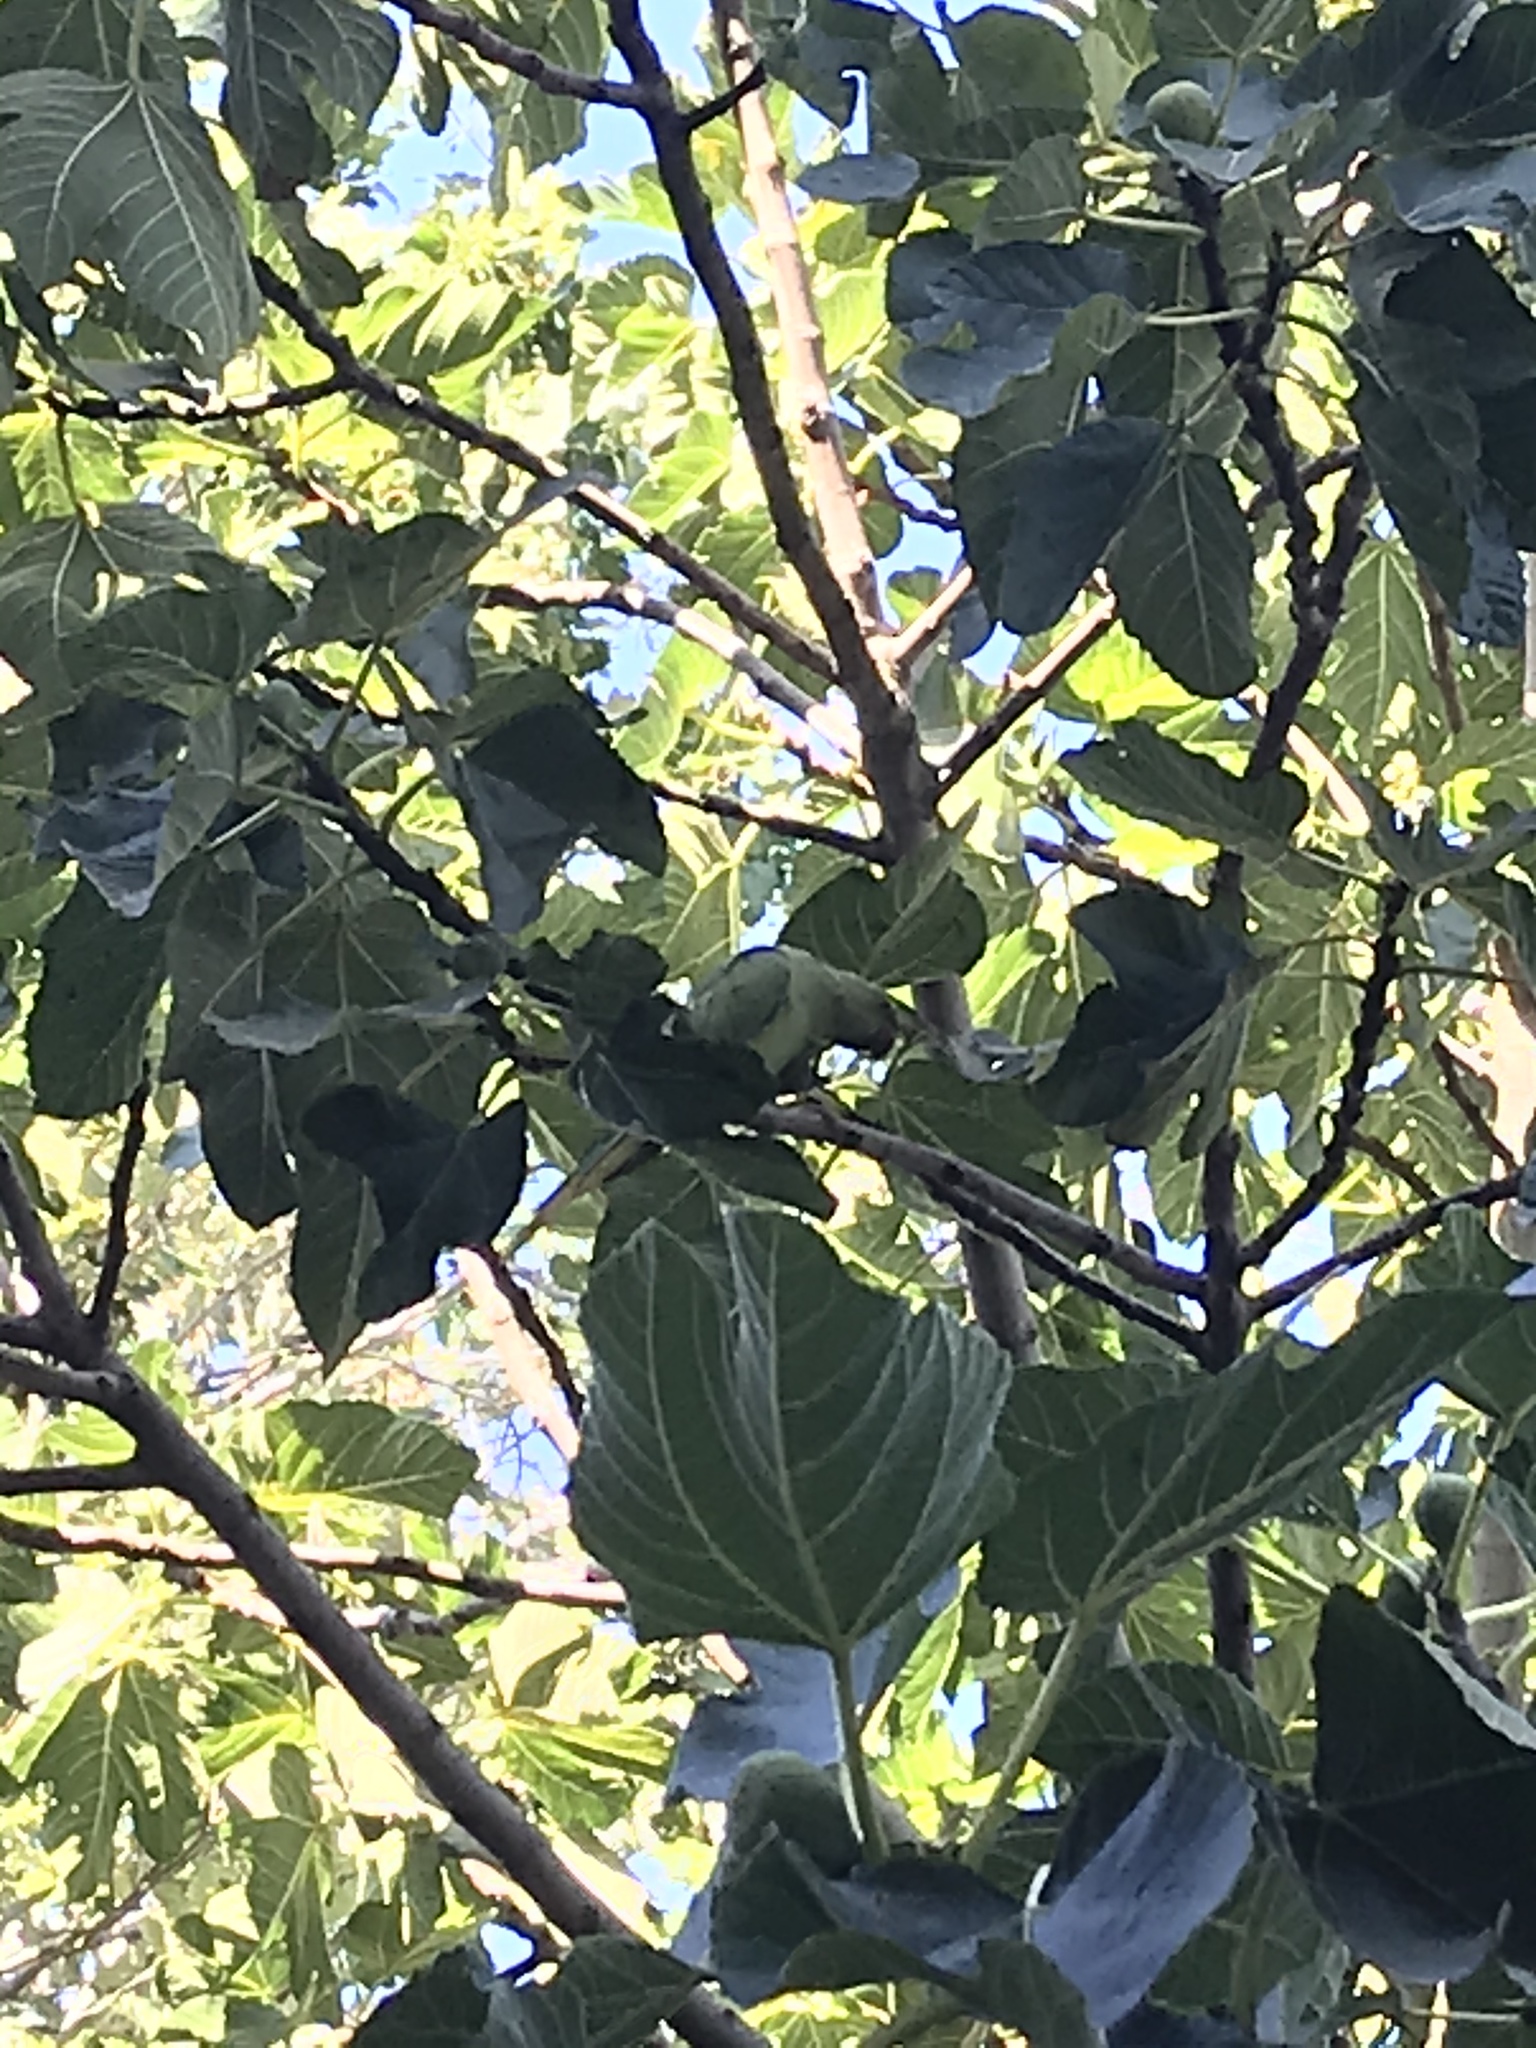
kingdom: Animalia
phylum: Chordata
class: Aves
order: Psittaciformes
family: Psittacidae
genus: Psittacula
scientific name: Psittacula krameri
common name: Rose-ringed parakeet
